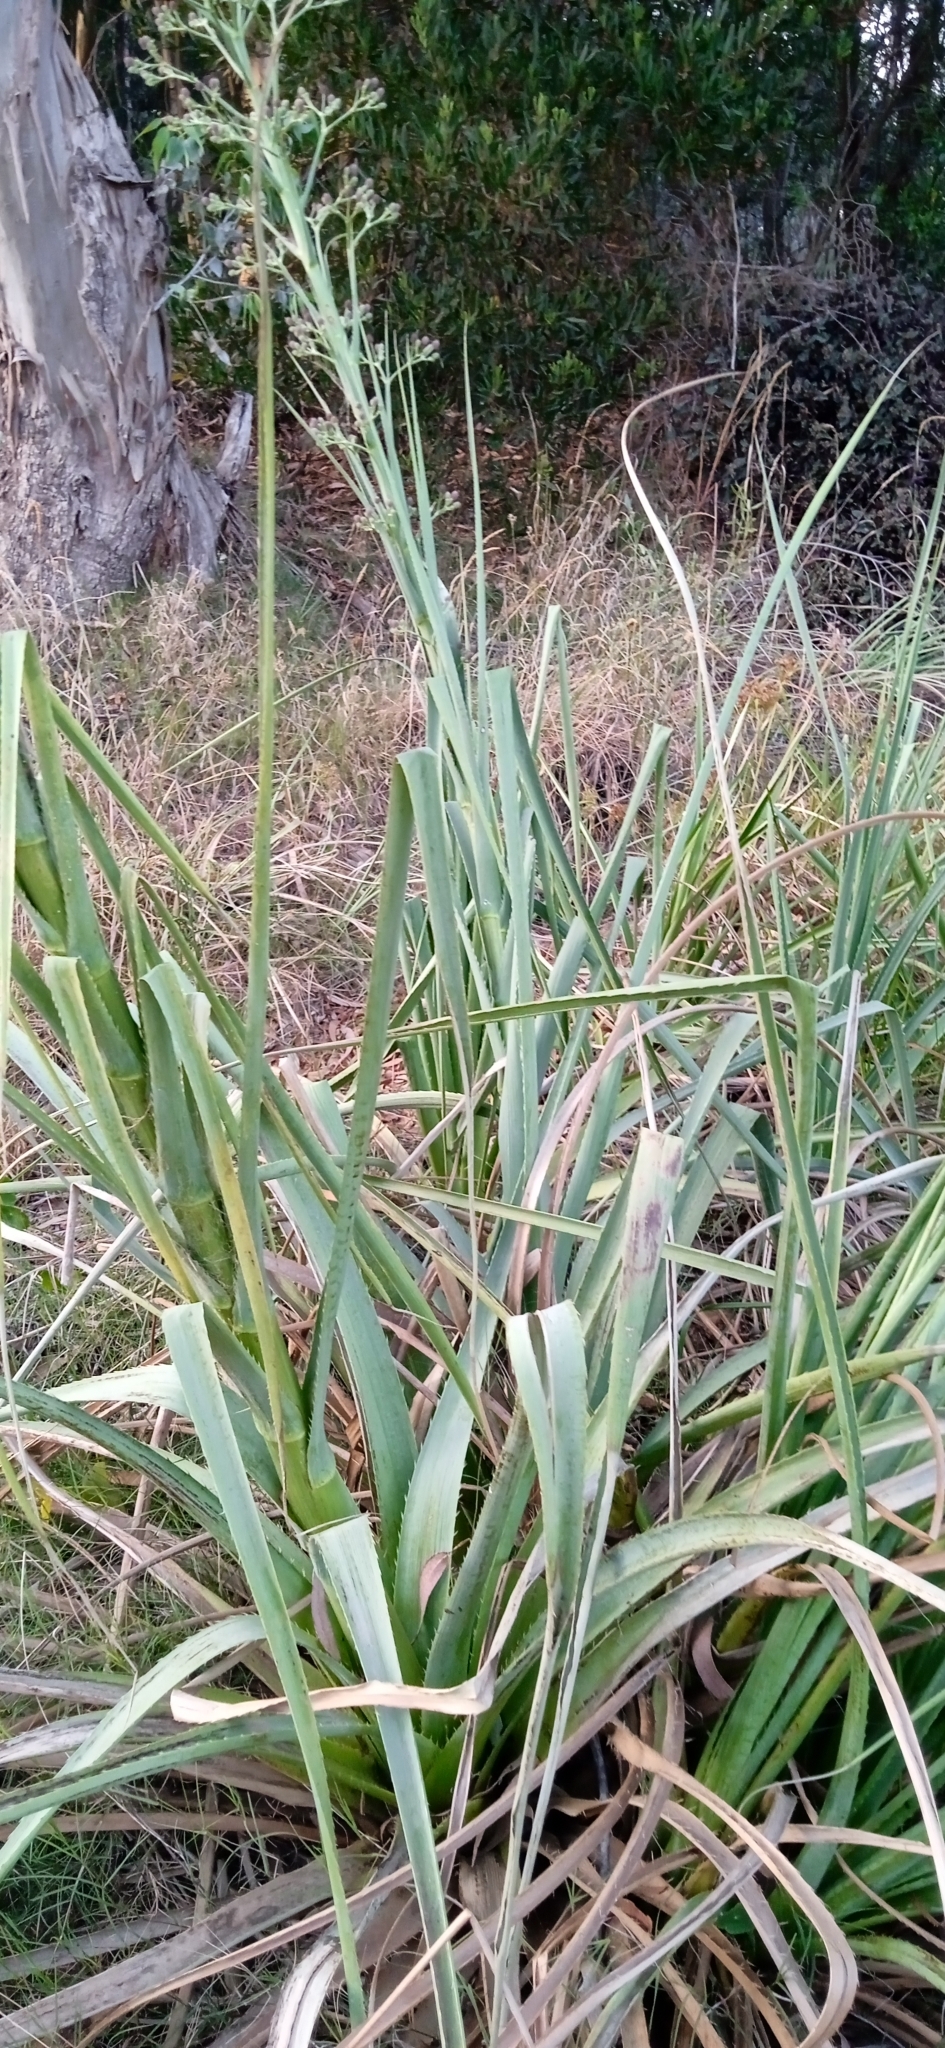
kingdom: Plantae
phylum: Tracheophyta
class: Magnoliopsida
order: Apiales
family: Apiaceae
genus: Eryngium
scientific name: Eryngium pandanifolium
